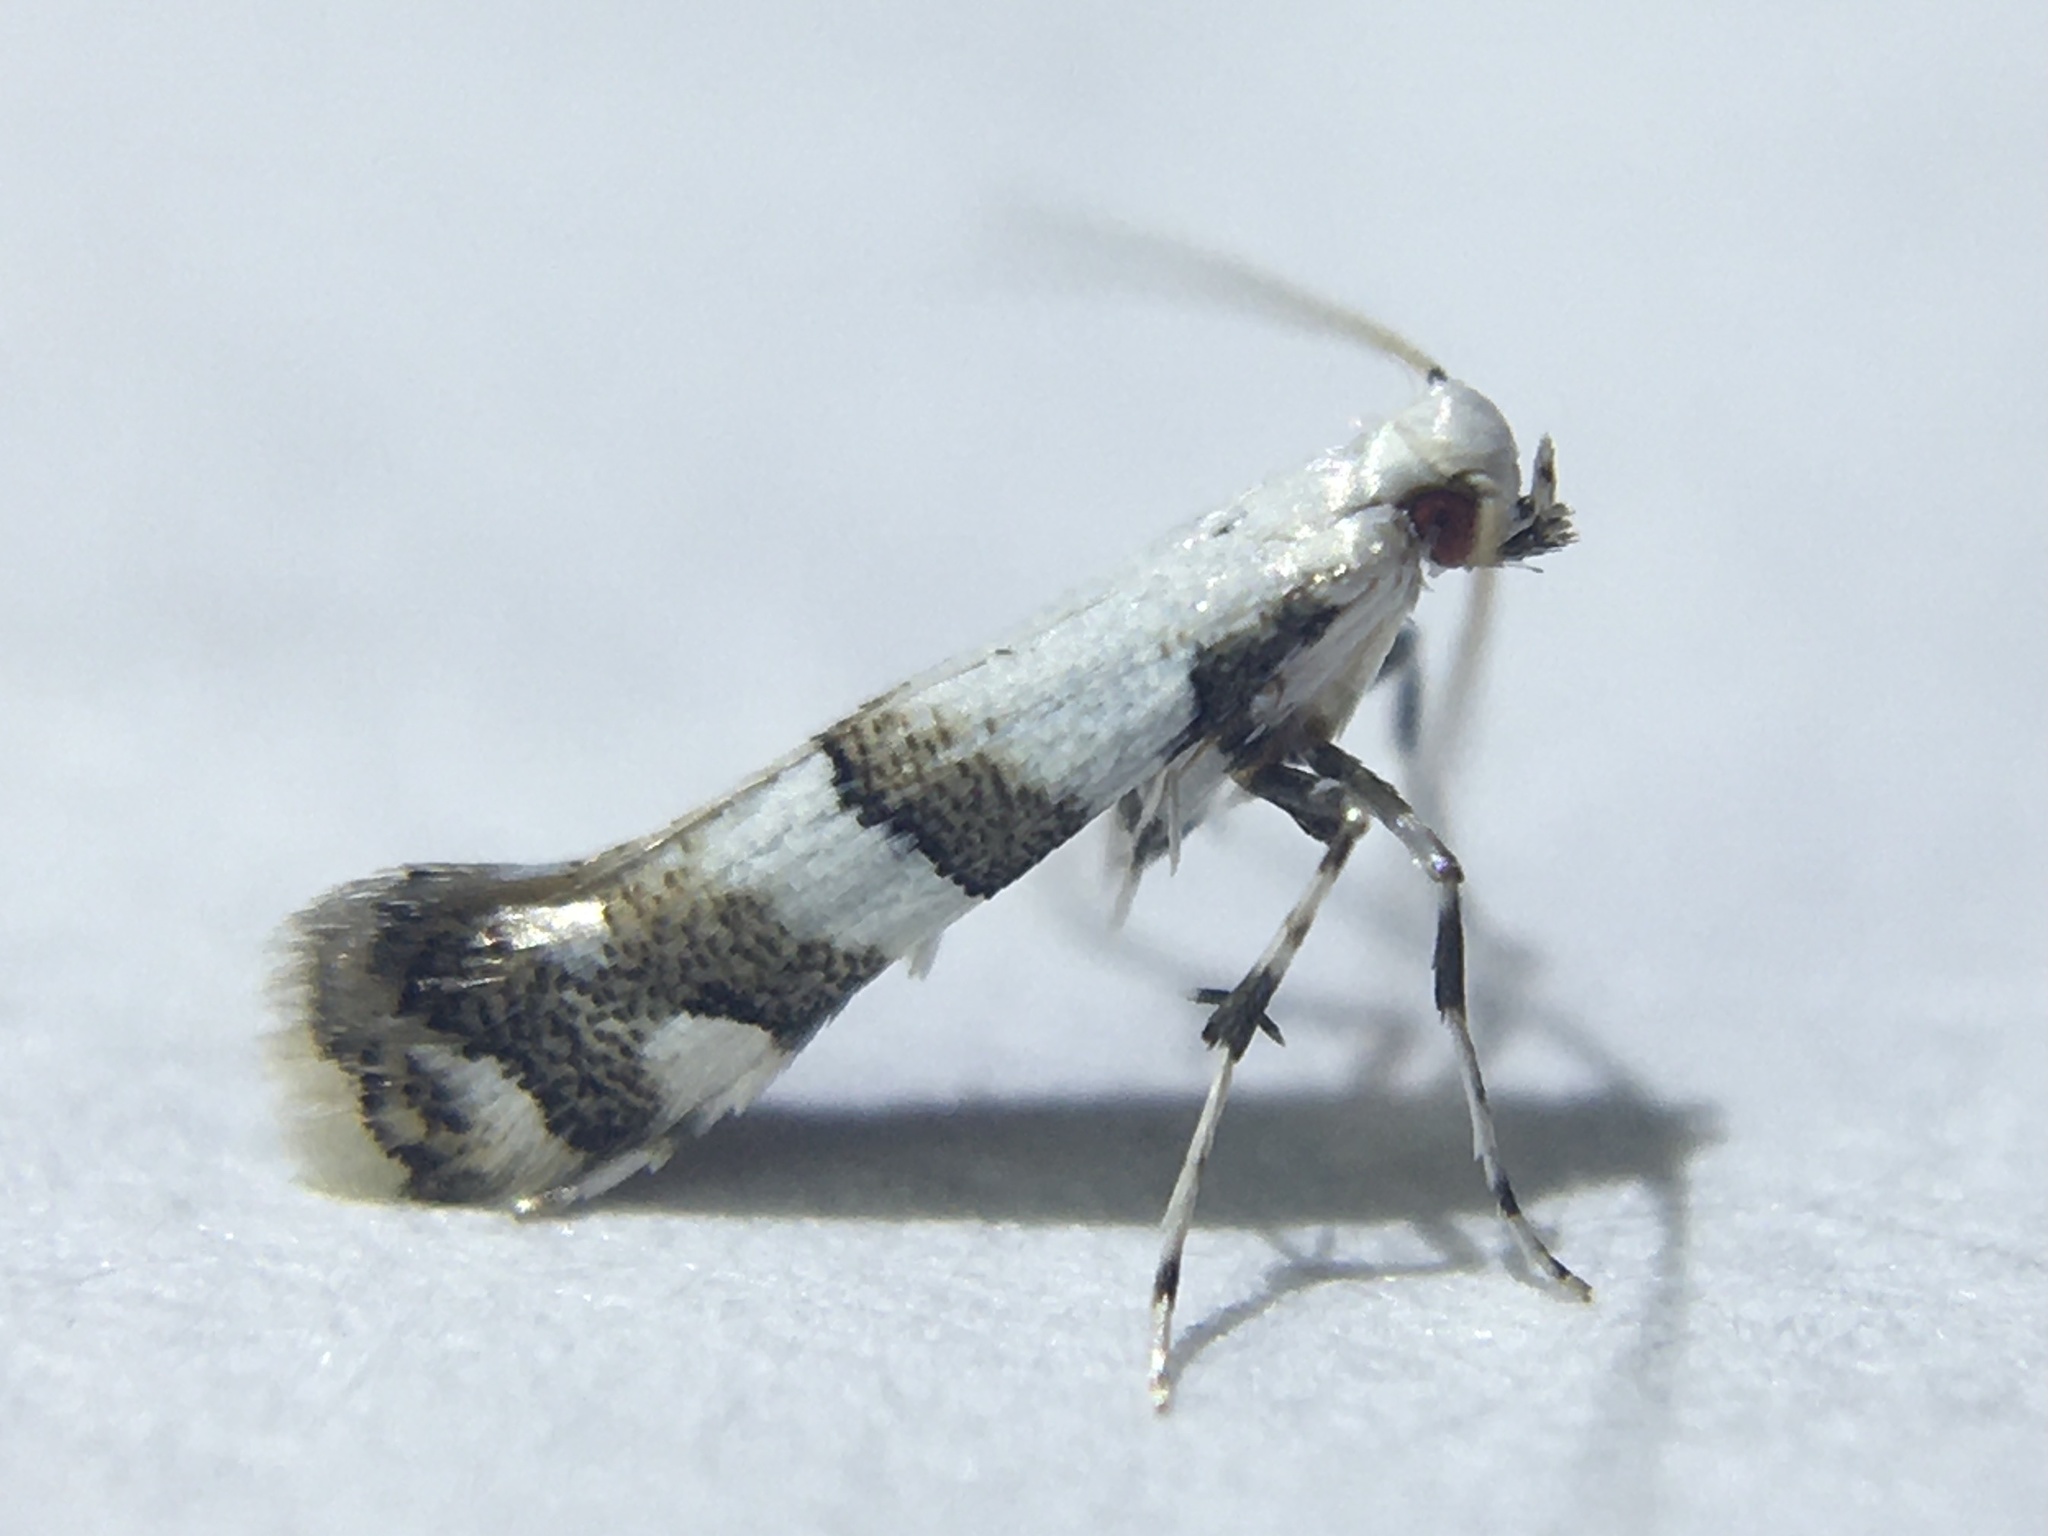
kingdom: Animalia
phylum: Arthropoda
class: Insecta
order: Lepidoptera
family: Gracillariidae
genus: Marmara
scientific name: Marmara elotella
